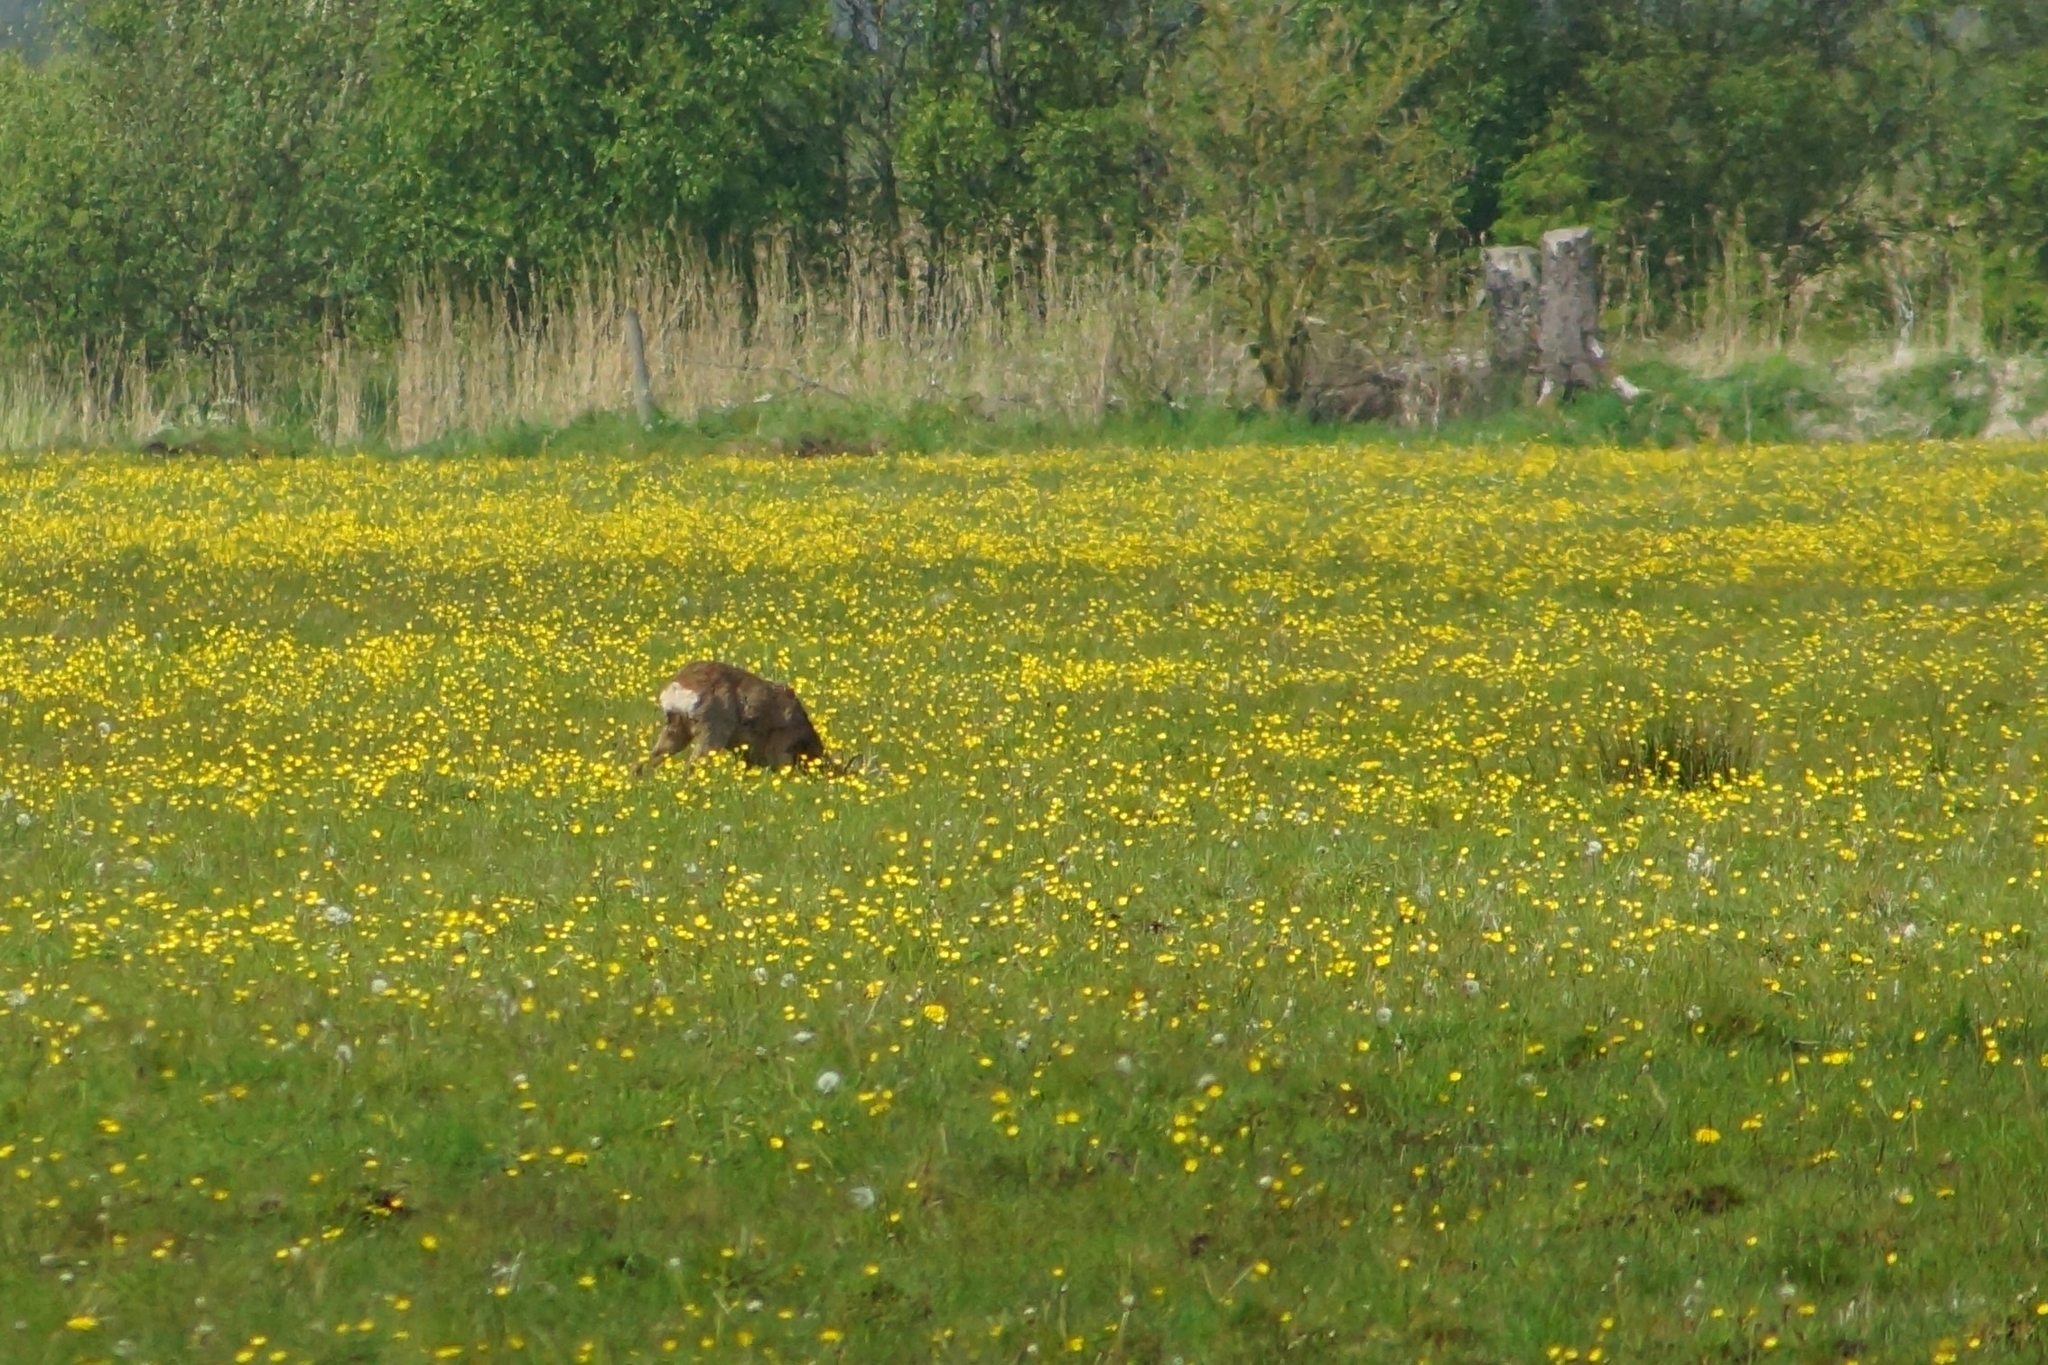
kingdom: Animalia
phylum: Chordata
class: Mammalia
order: Artiodactyla
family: Cervidae
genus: Capreolus
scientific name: Capreolus capreolus
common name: Western roe deer
